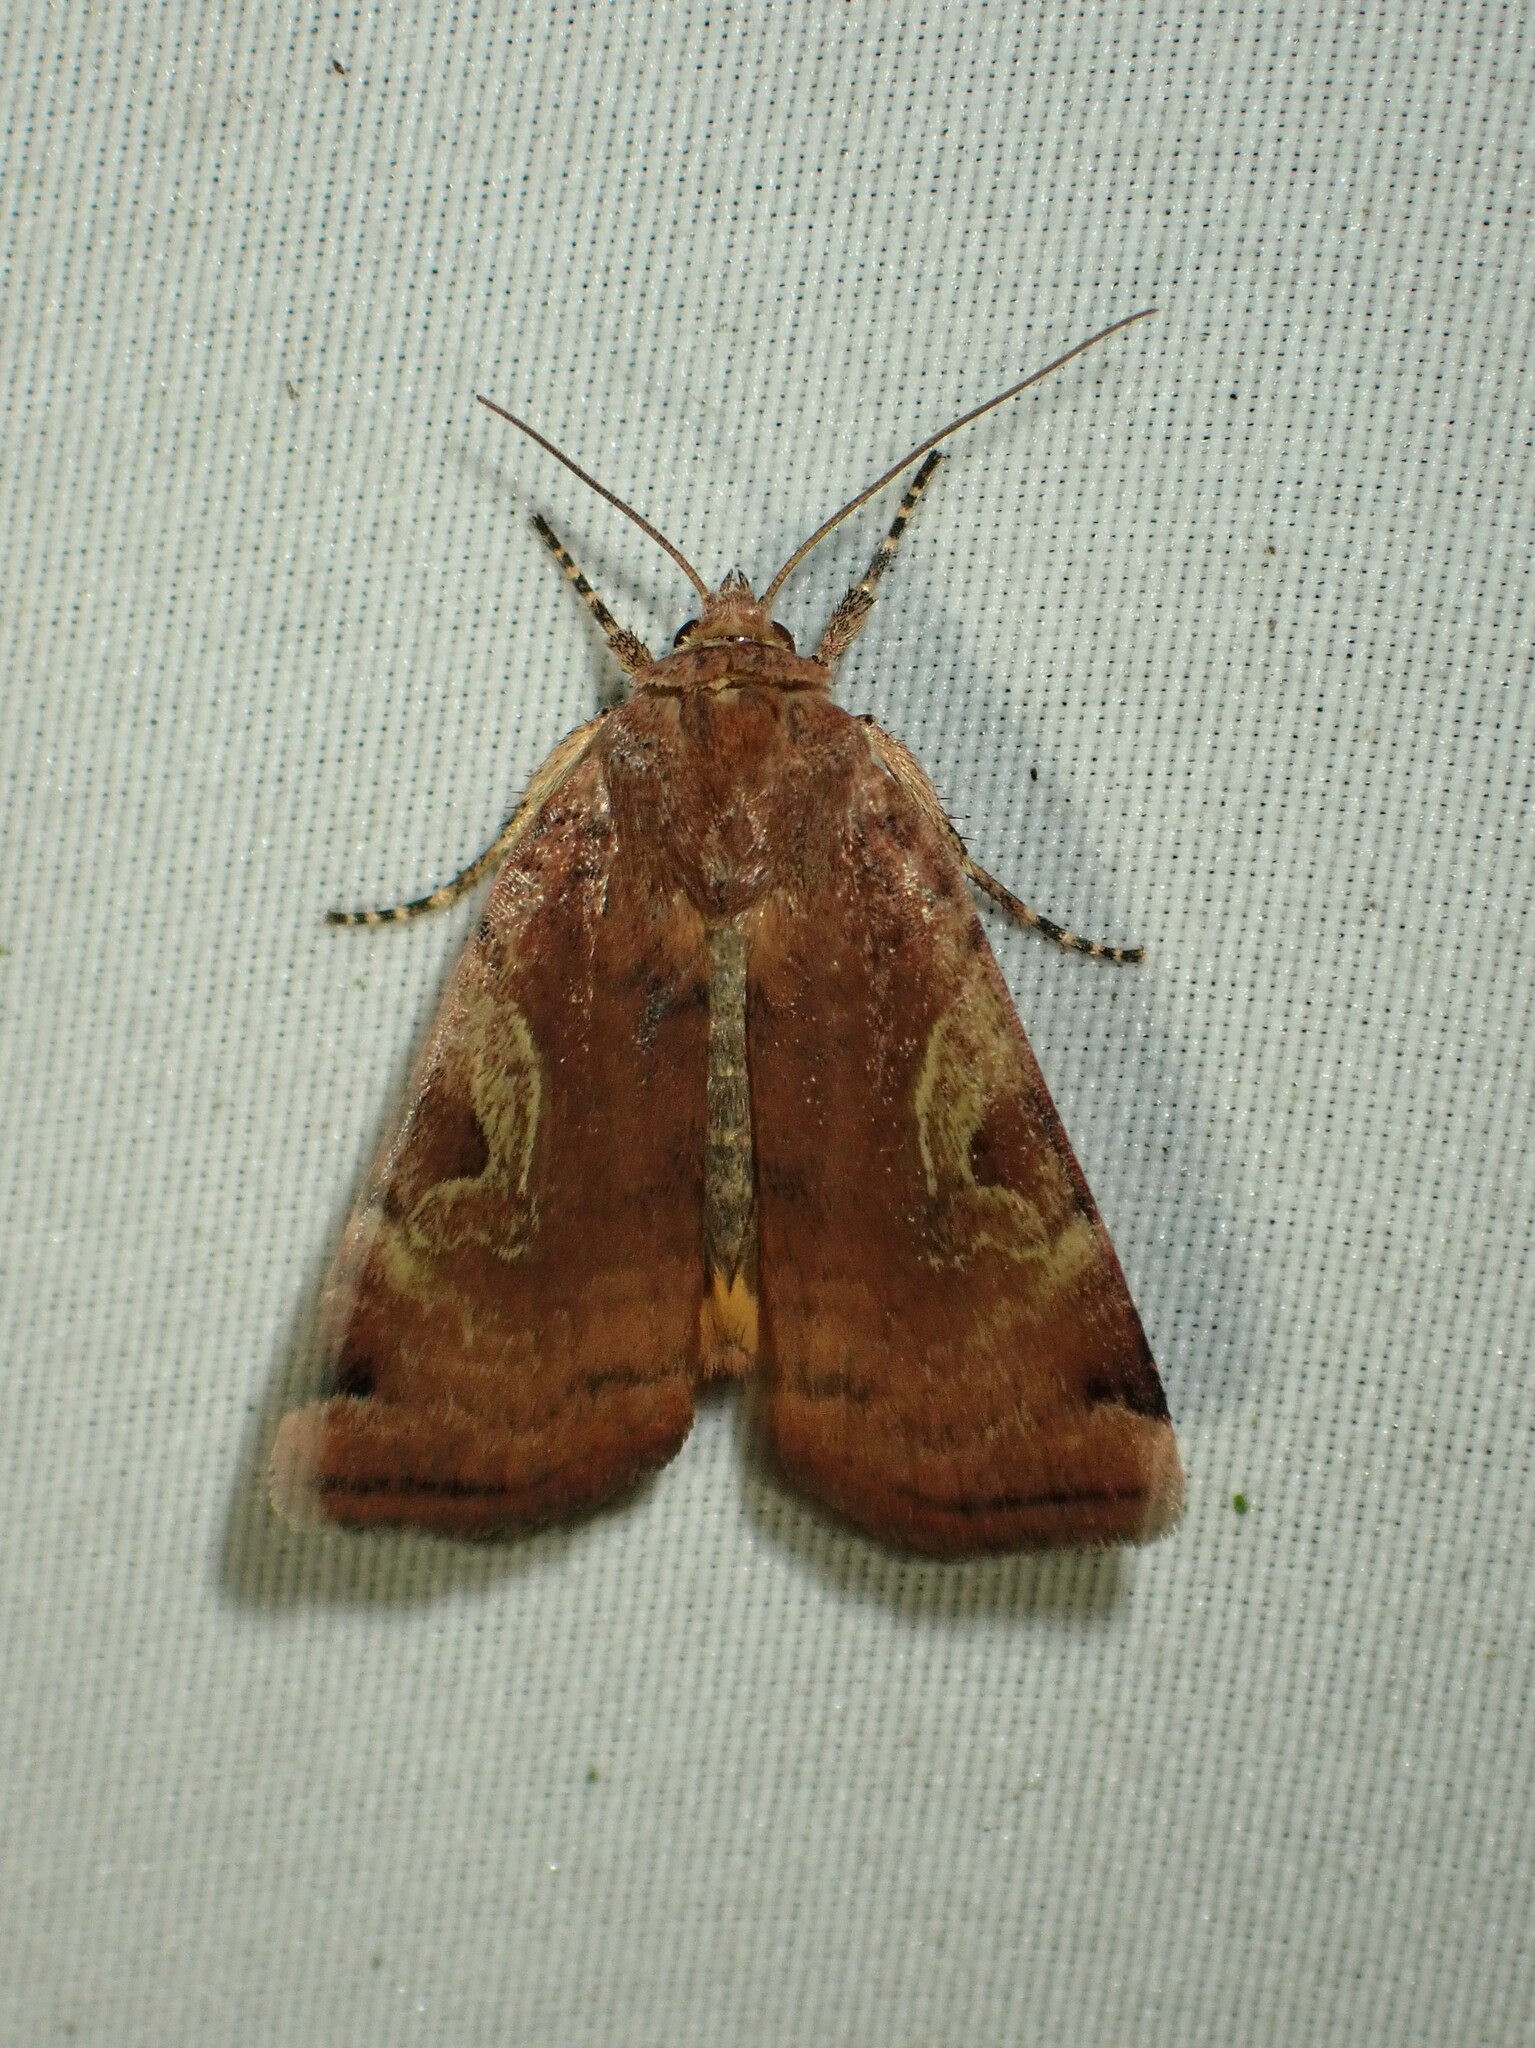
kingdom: Animalia
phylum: Arthropoda
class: Insecta
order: Lepidoptera
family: Noctuidae
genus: Cryptocala
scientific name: Cryptocala acadiensis
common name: Catocaline dart
